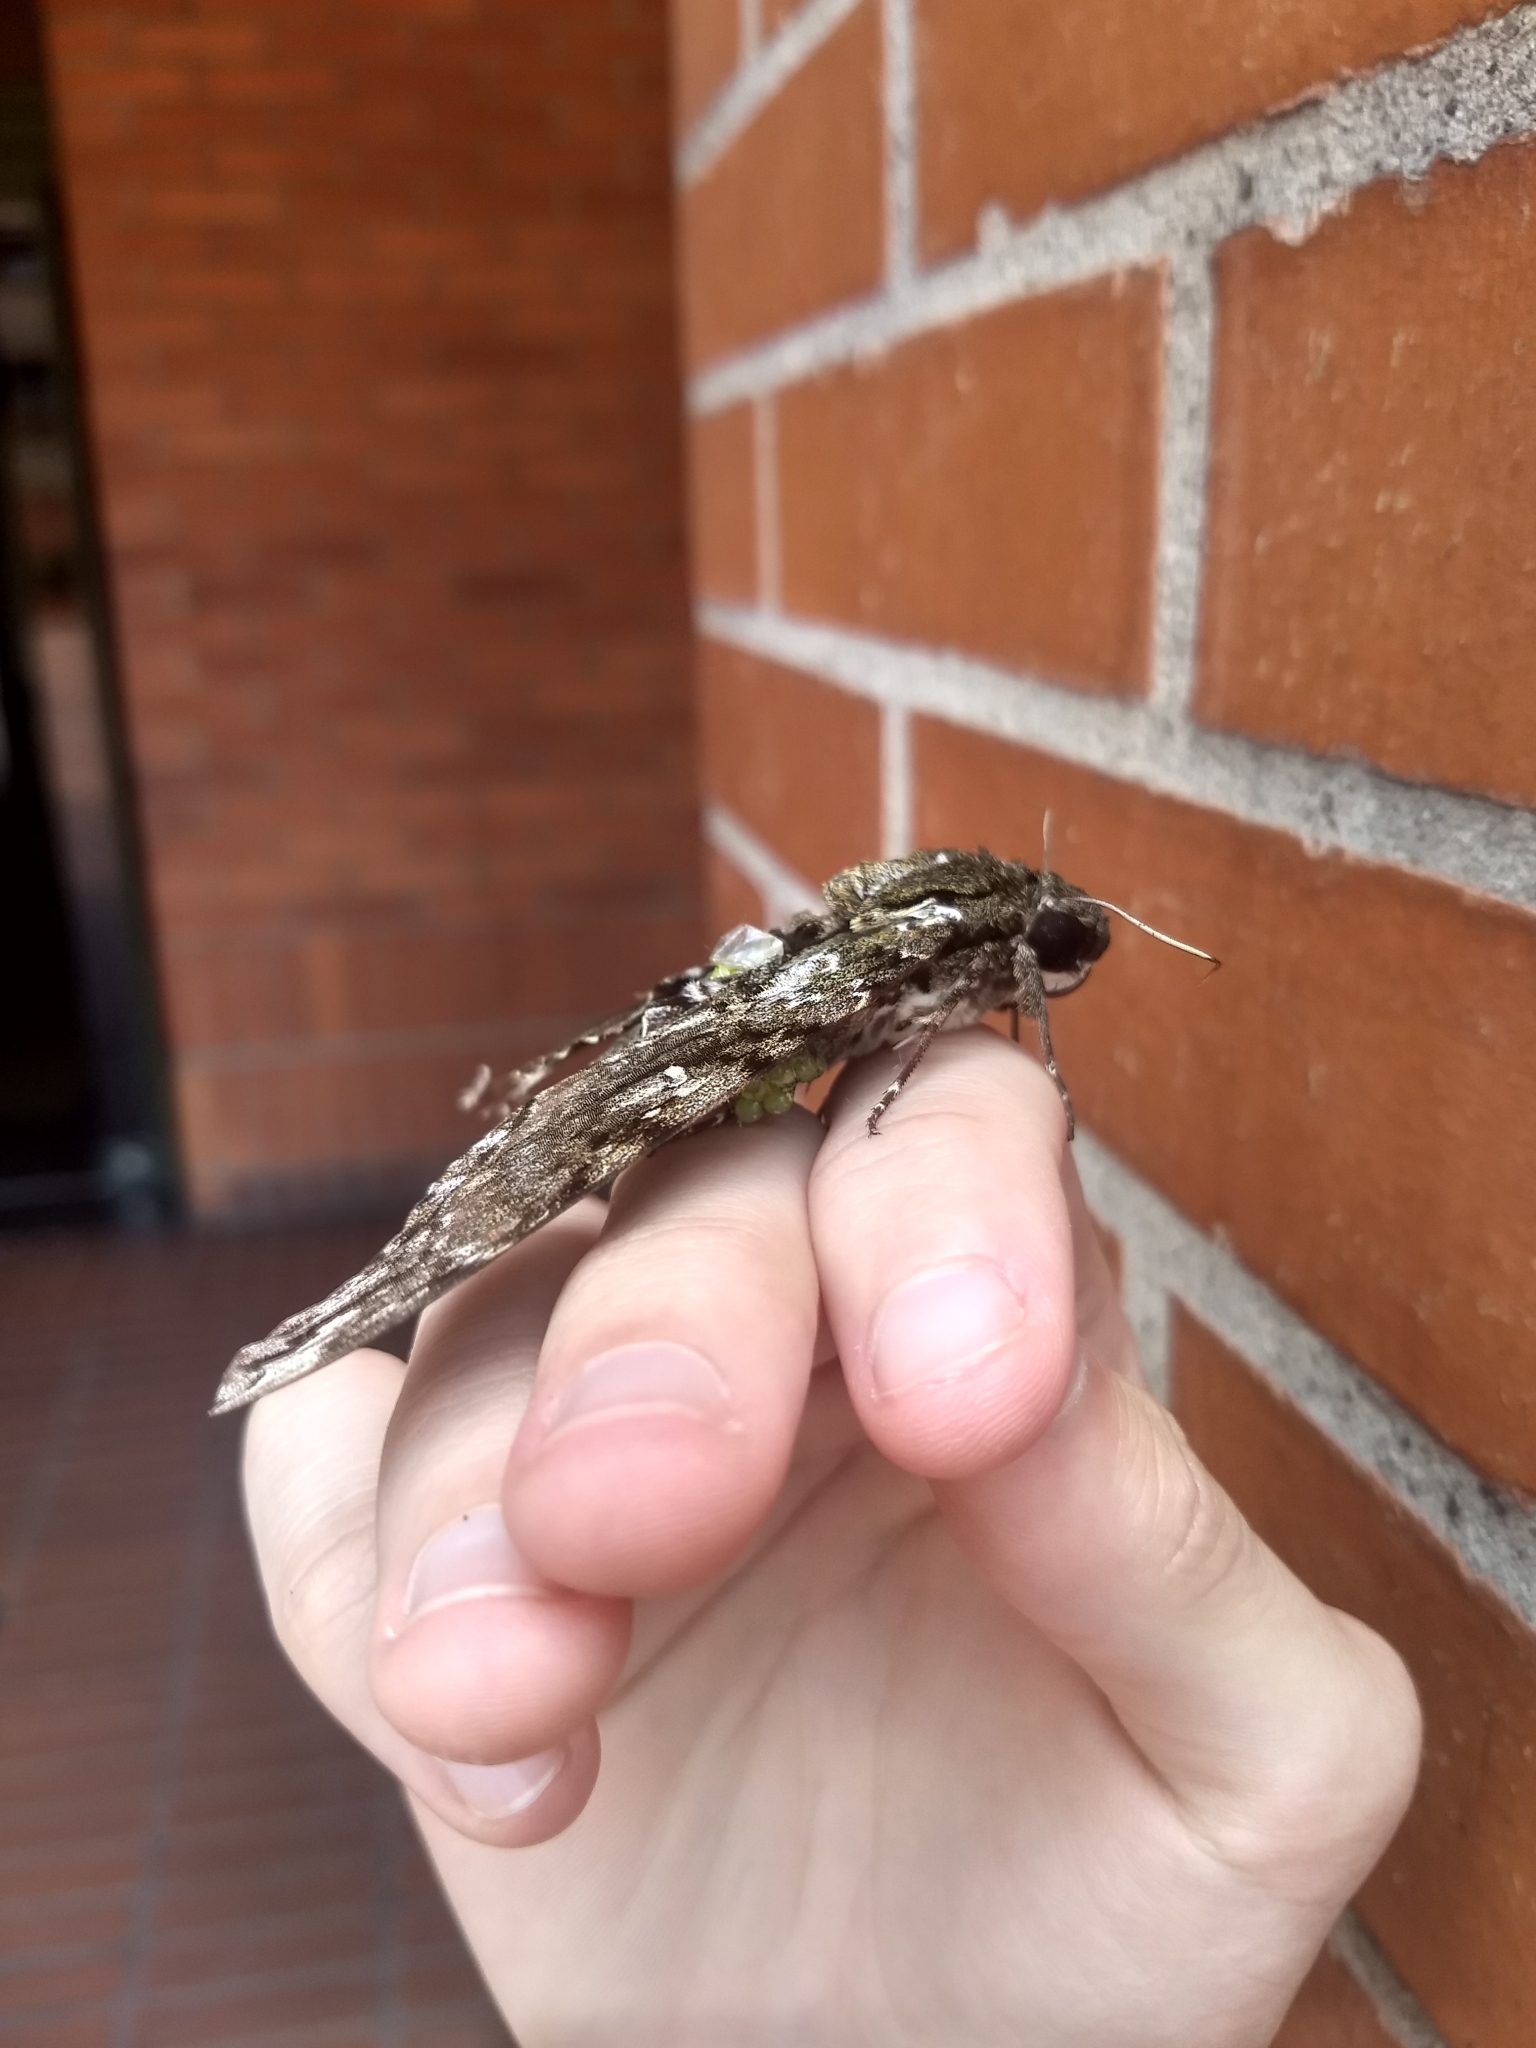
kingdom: Animalia
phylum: Arthropoda
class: Insecta
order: Lepidoptera
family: Sphingidae
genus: Cocytius
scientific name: Cocytius duponchel
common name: Duponchel's sphinx
